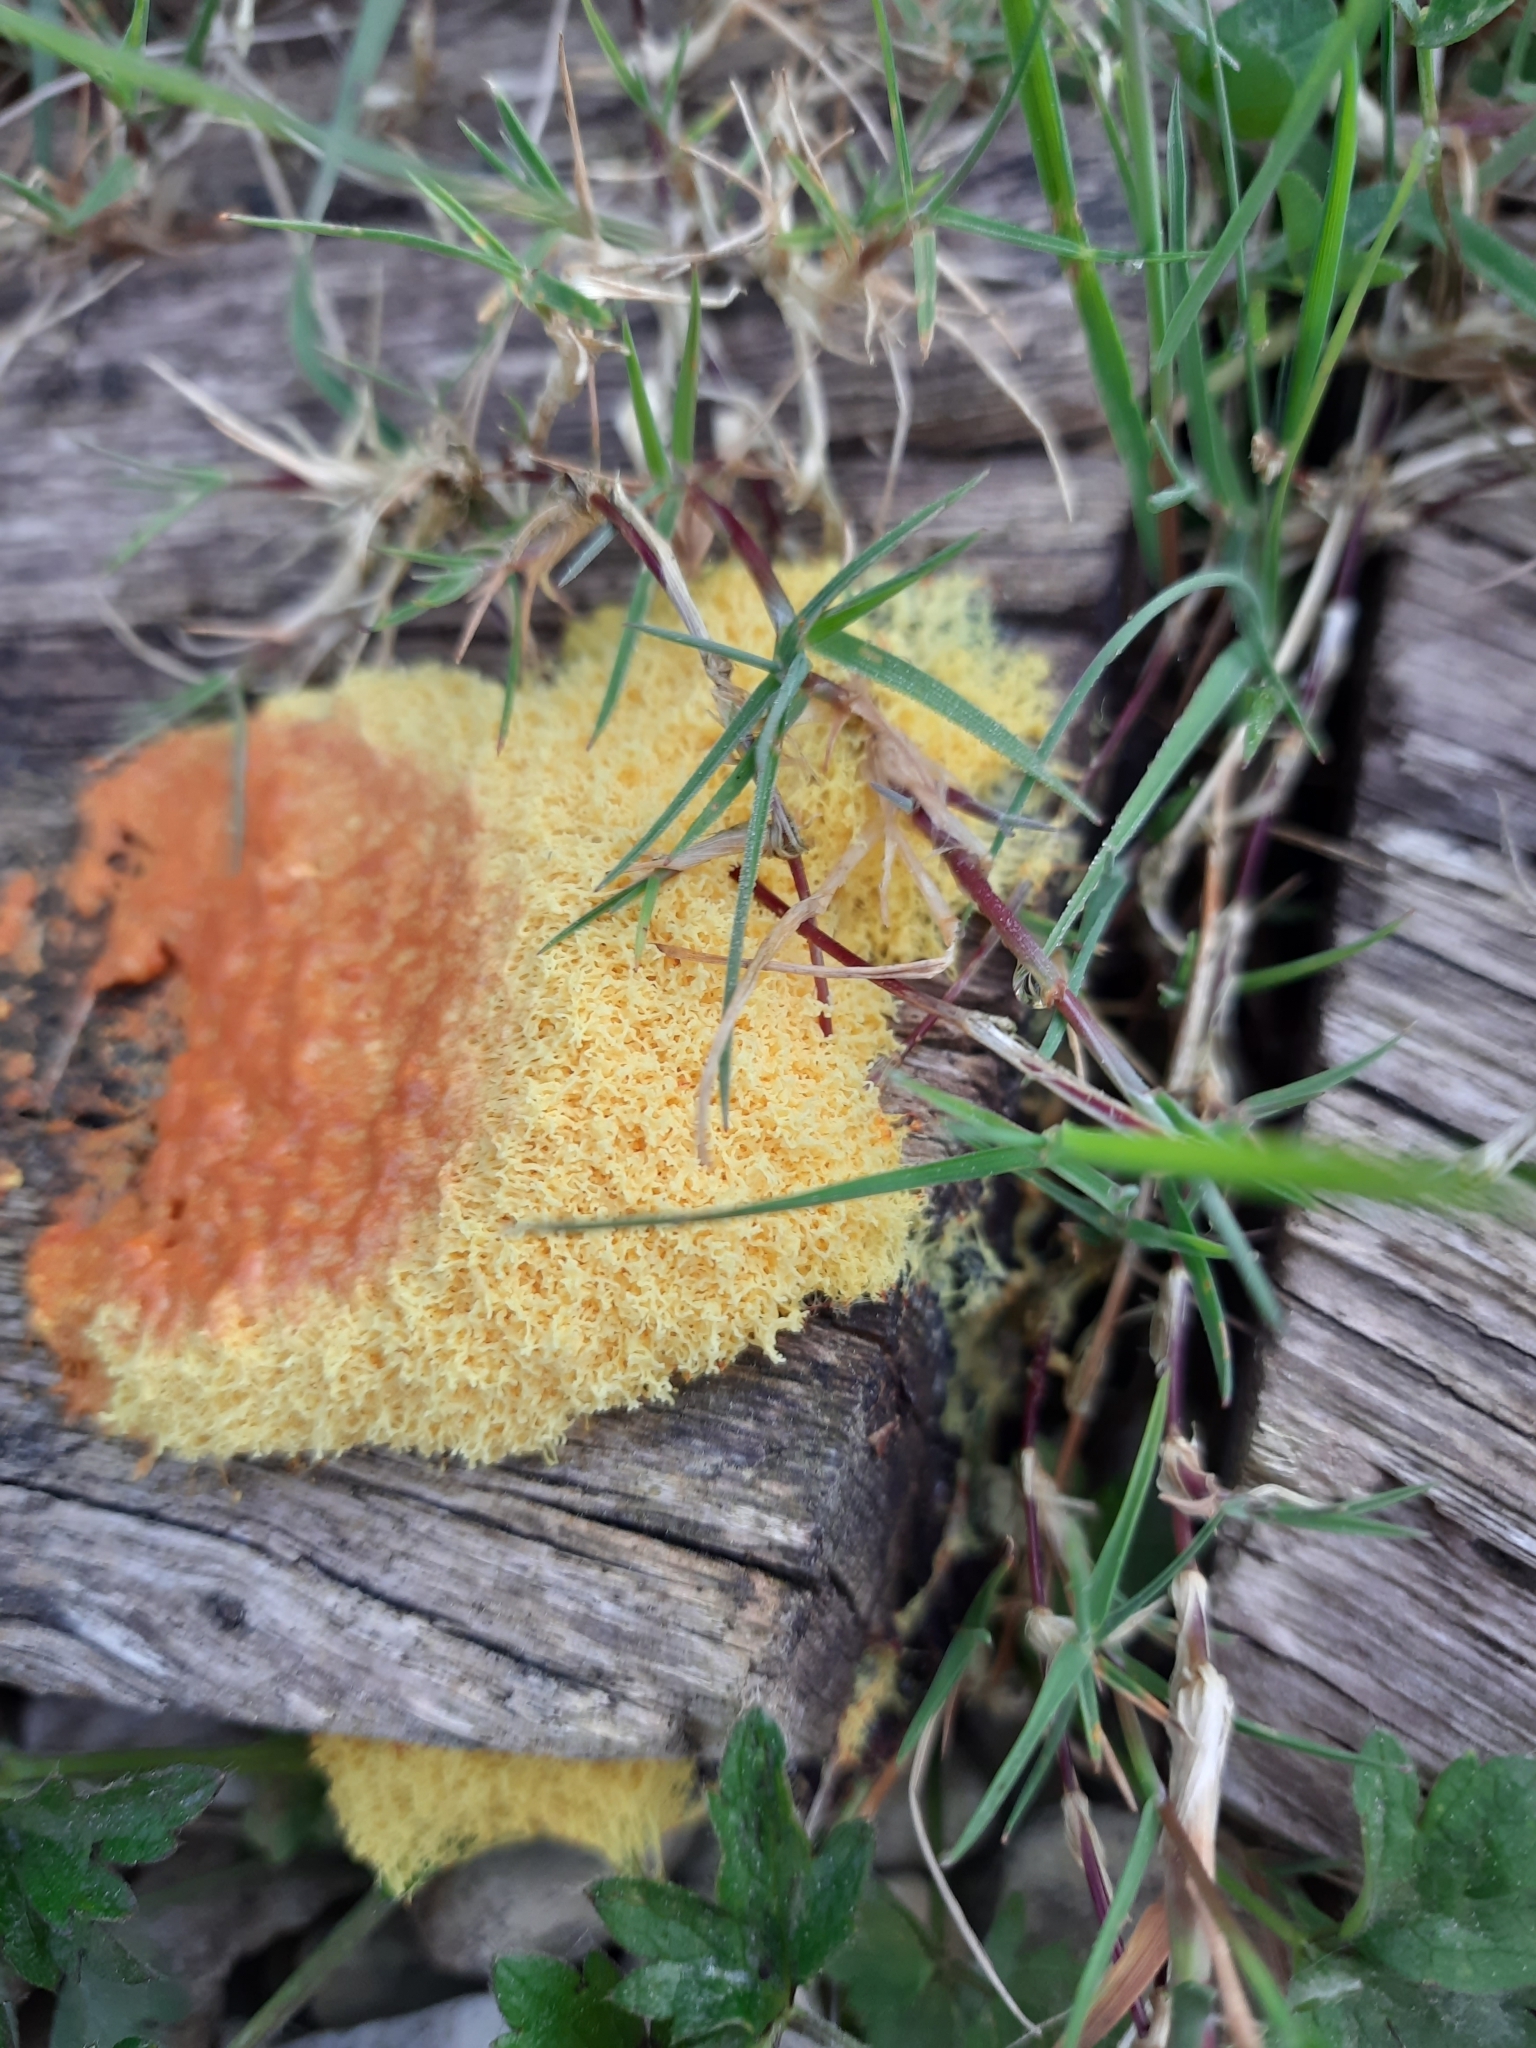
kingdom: Protozoa
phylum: Mycetozoa
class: Myxomycetes
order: Physarales
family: Physaraceae
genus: Fuligo
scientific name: Fuligo septica
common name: Dog vomit slime mold
